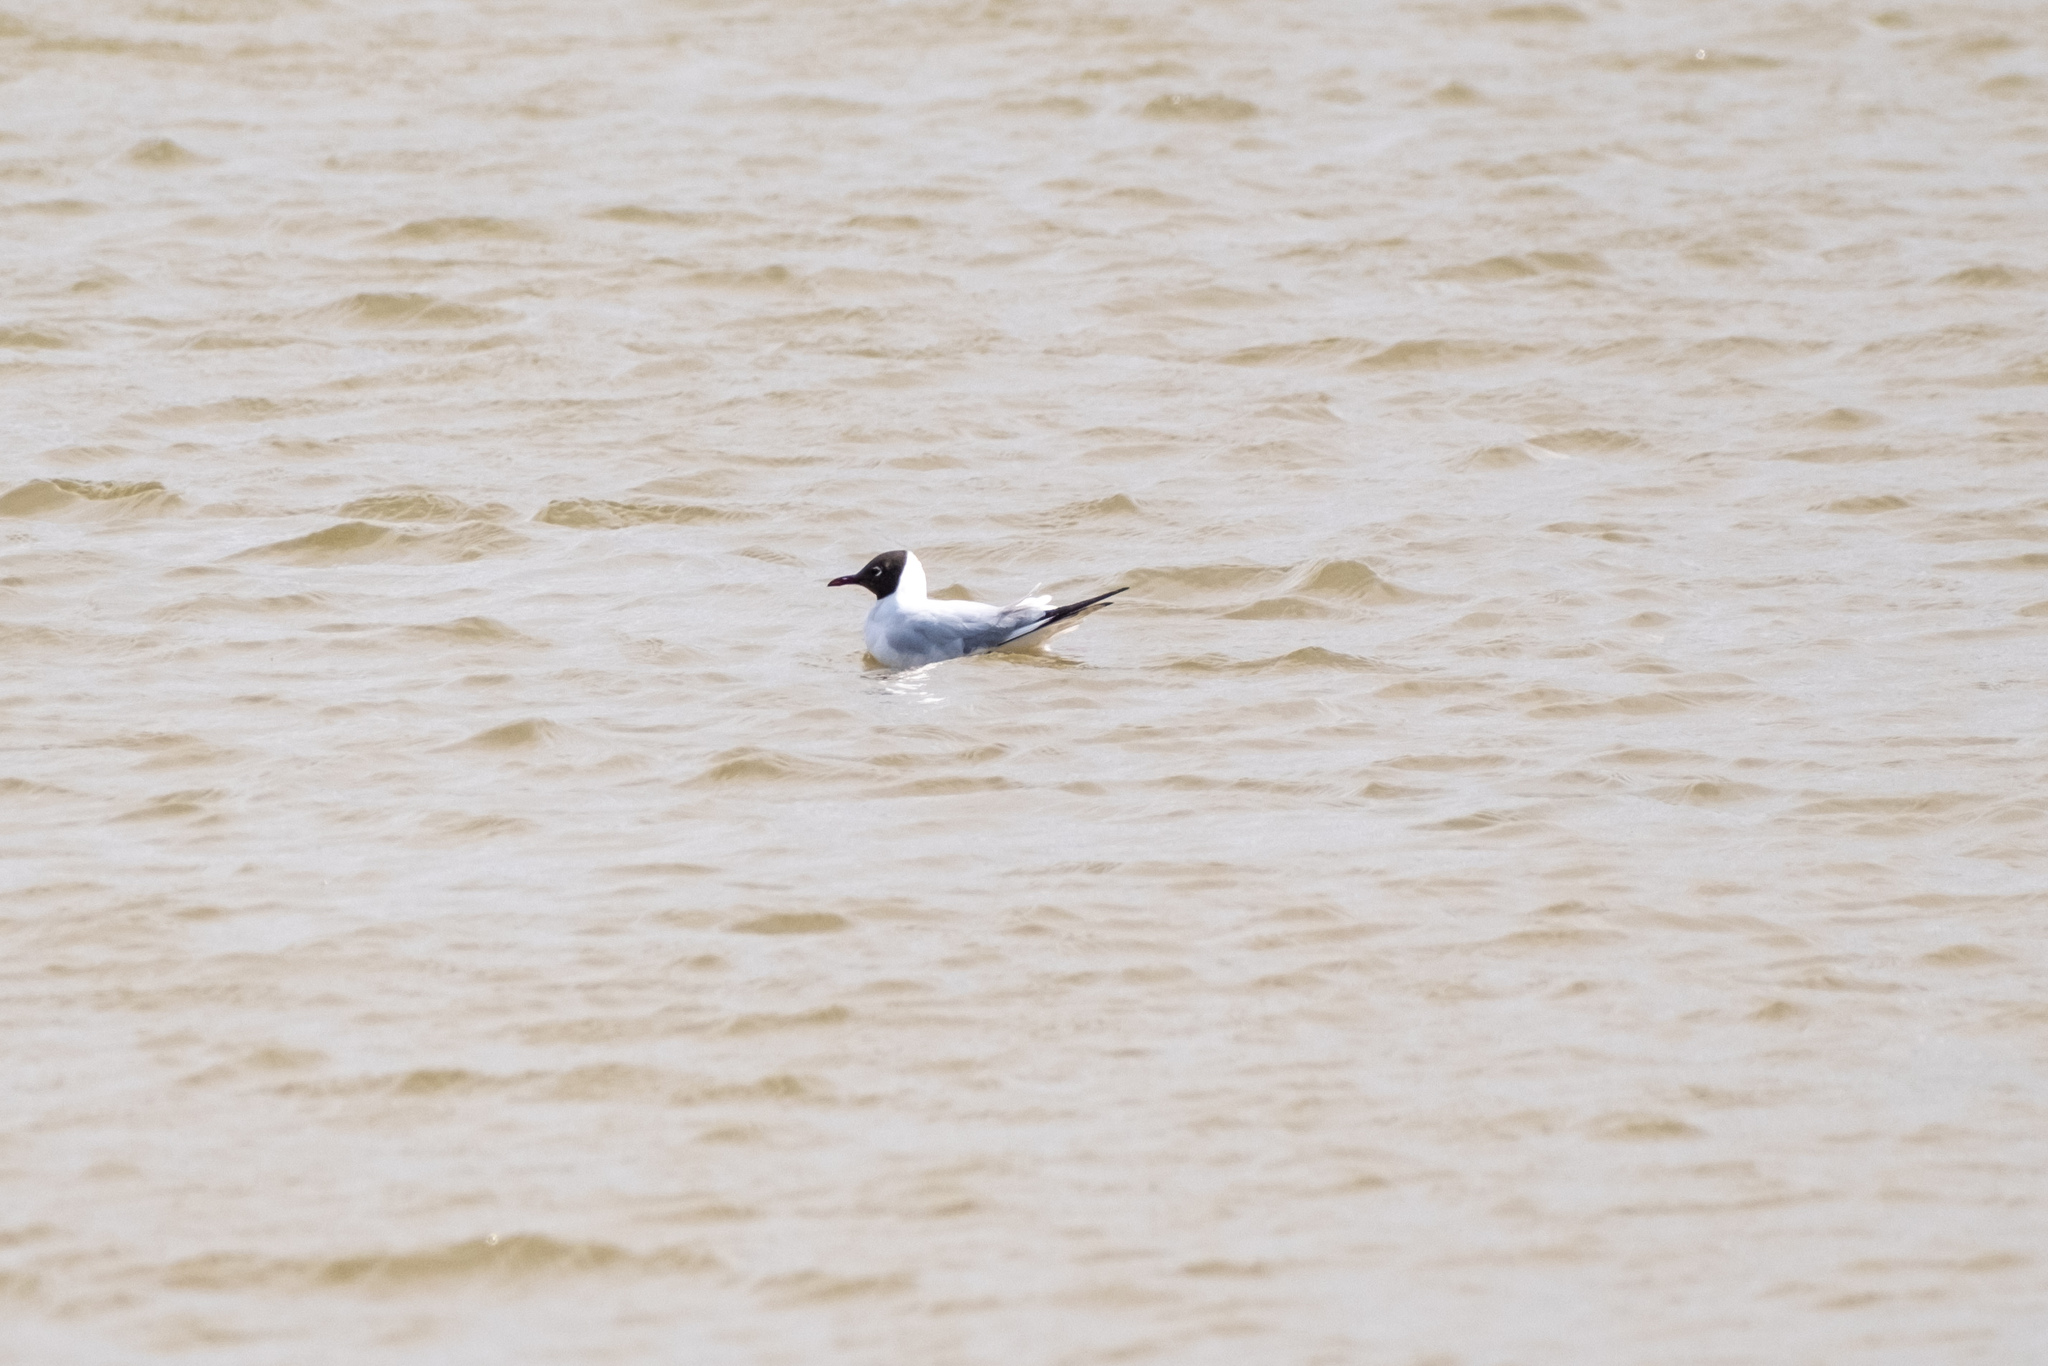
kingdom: Animalia
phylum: Chordata
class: Aves
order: Charadriiformes
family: Laridae
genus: Chroicocephalus
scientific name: Chroicocephalus ridibundus
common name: Black-headed gull
